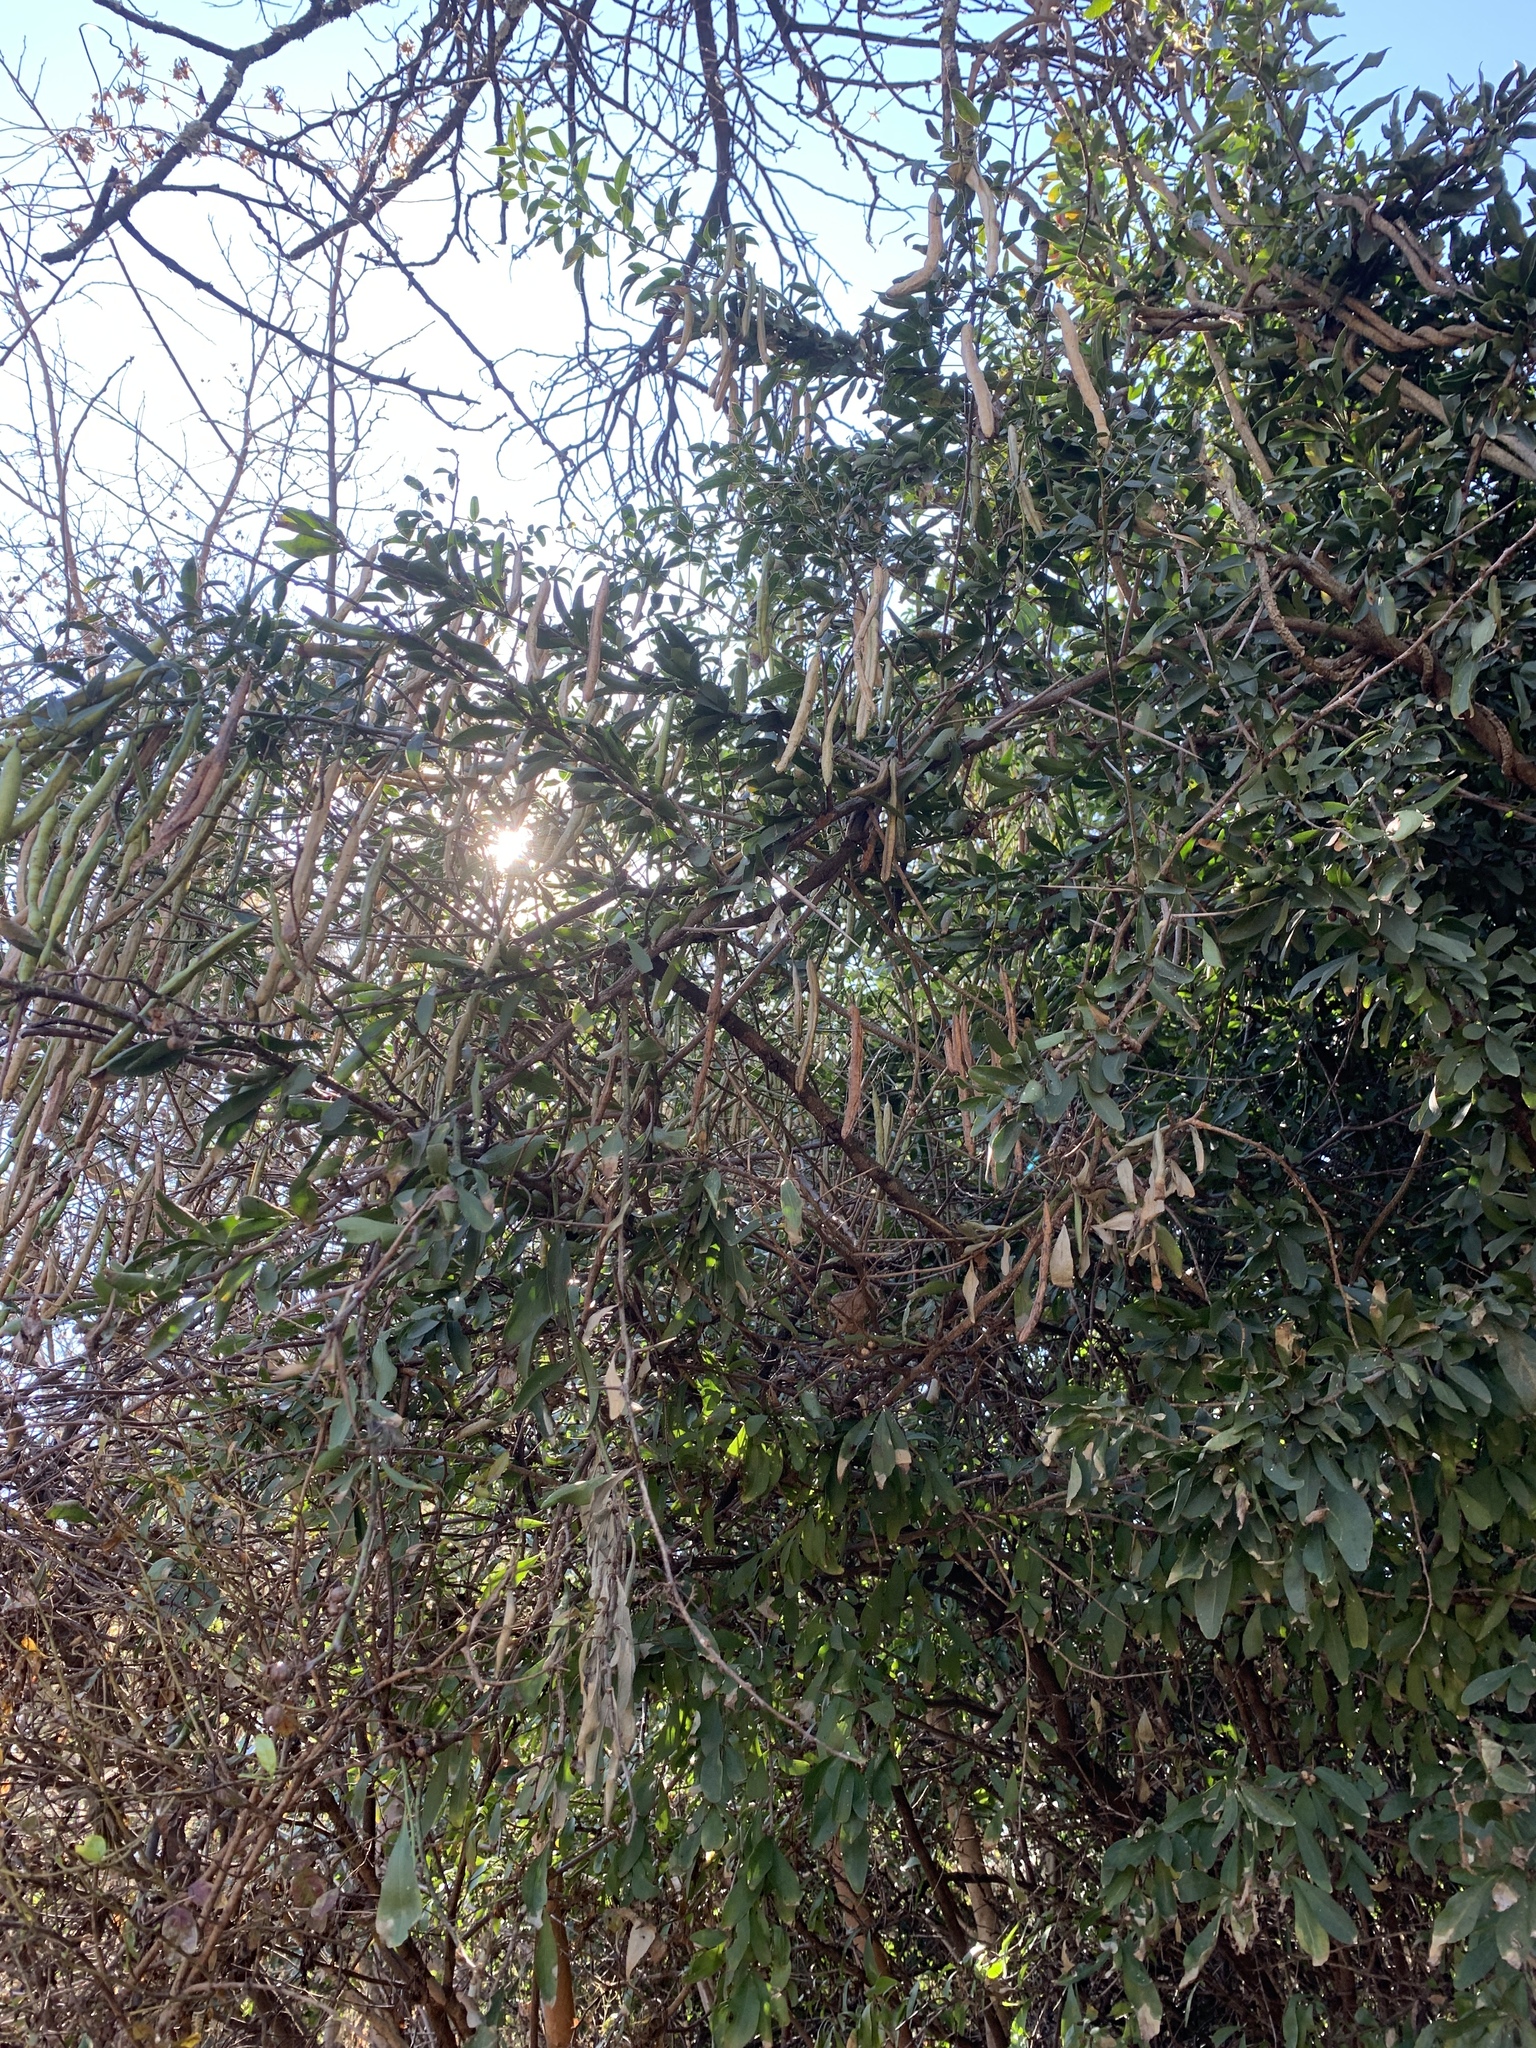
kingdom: Plantae
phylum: Tracheophyta
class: Magnoliopsida
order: Fabales
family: Fabaceae
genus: Senna
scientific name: Senna corymbosa
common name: Argentine senna
